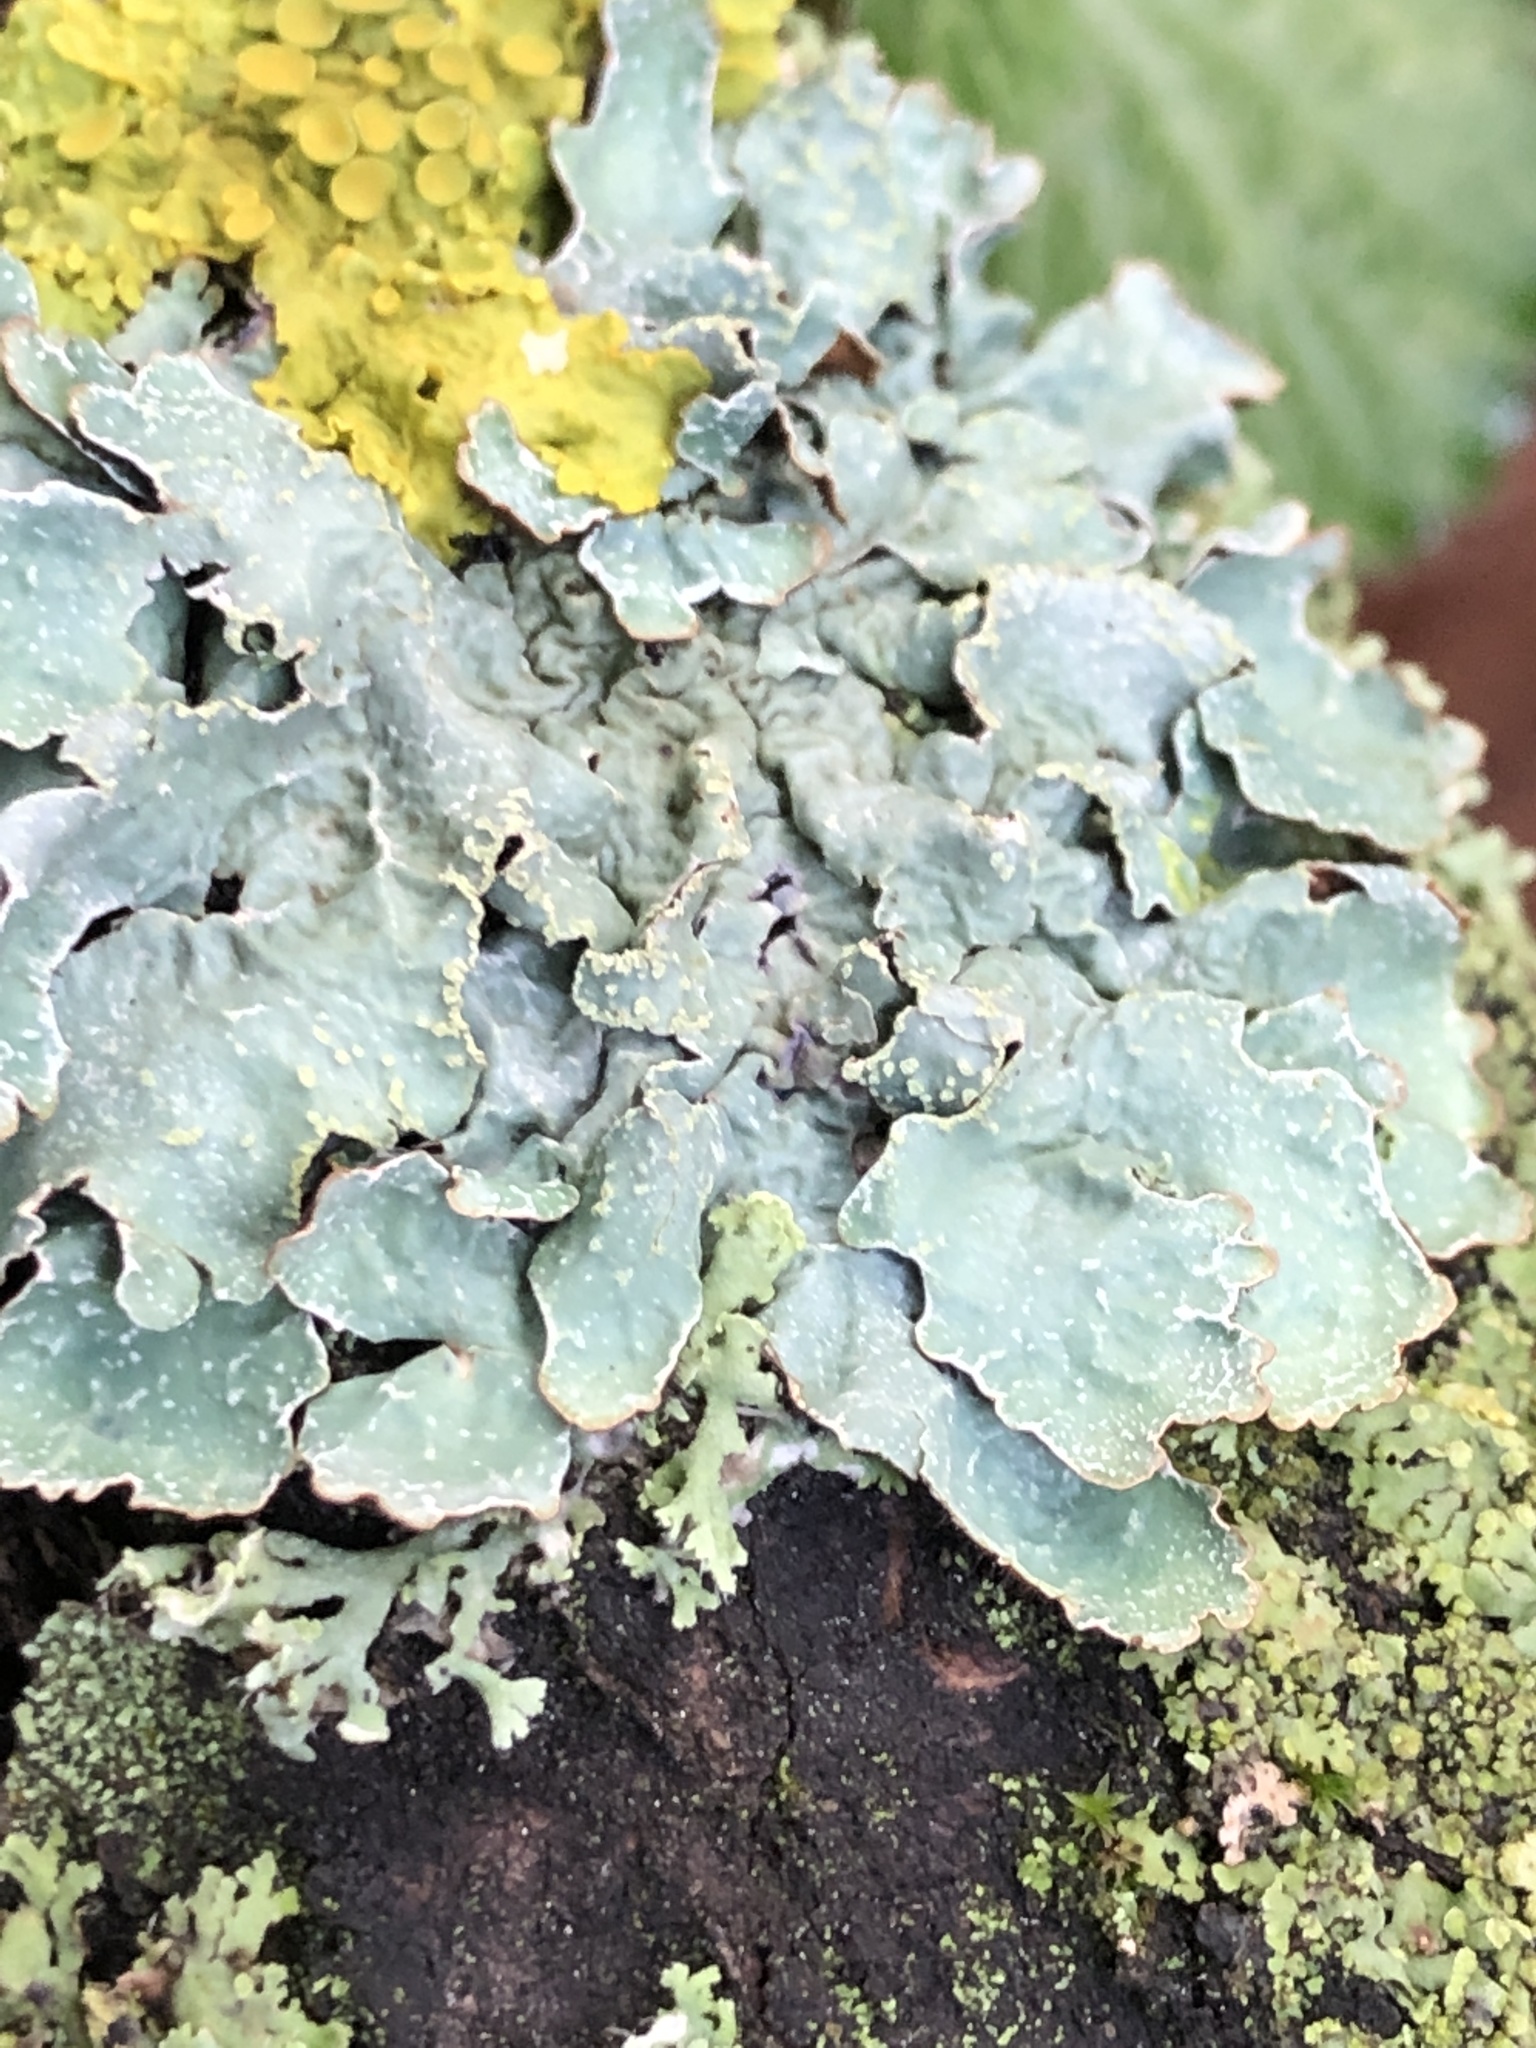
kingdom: Fungi
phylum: Ascomycota
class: Lecanoromycetes
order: Lecanorales
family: Parmeliaceae
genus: Parmelia
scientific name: Parmelia sulcata
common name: Netted shield lichen
